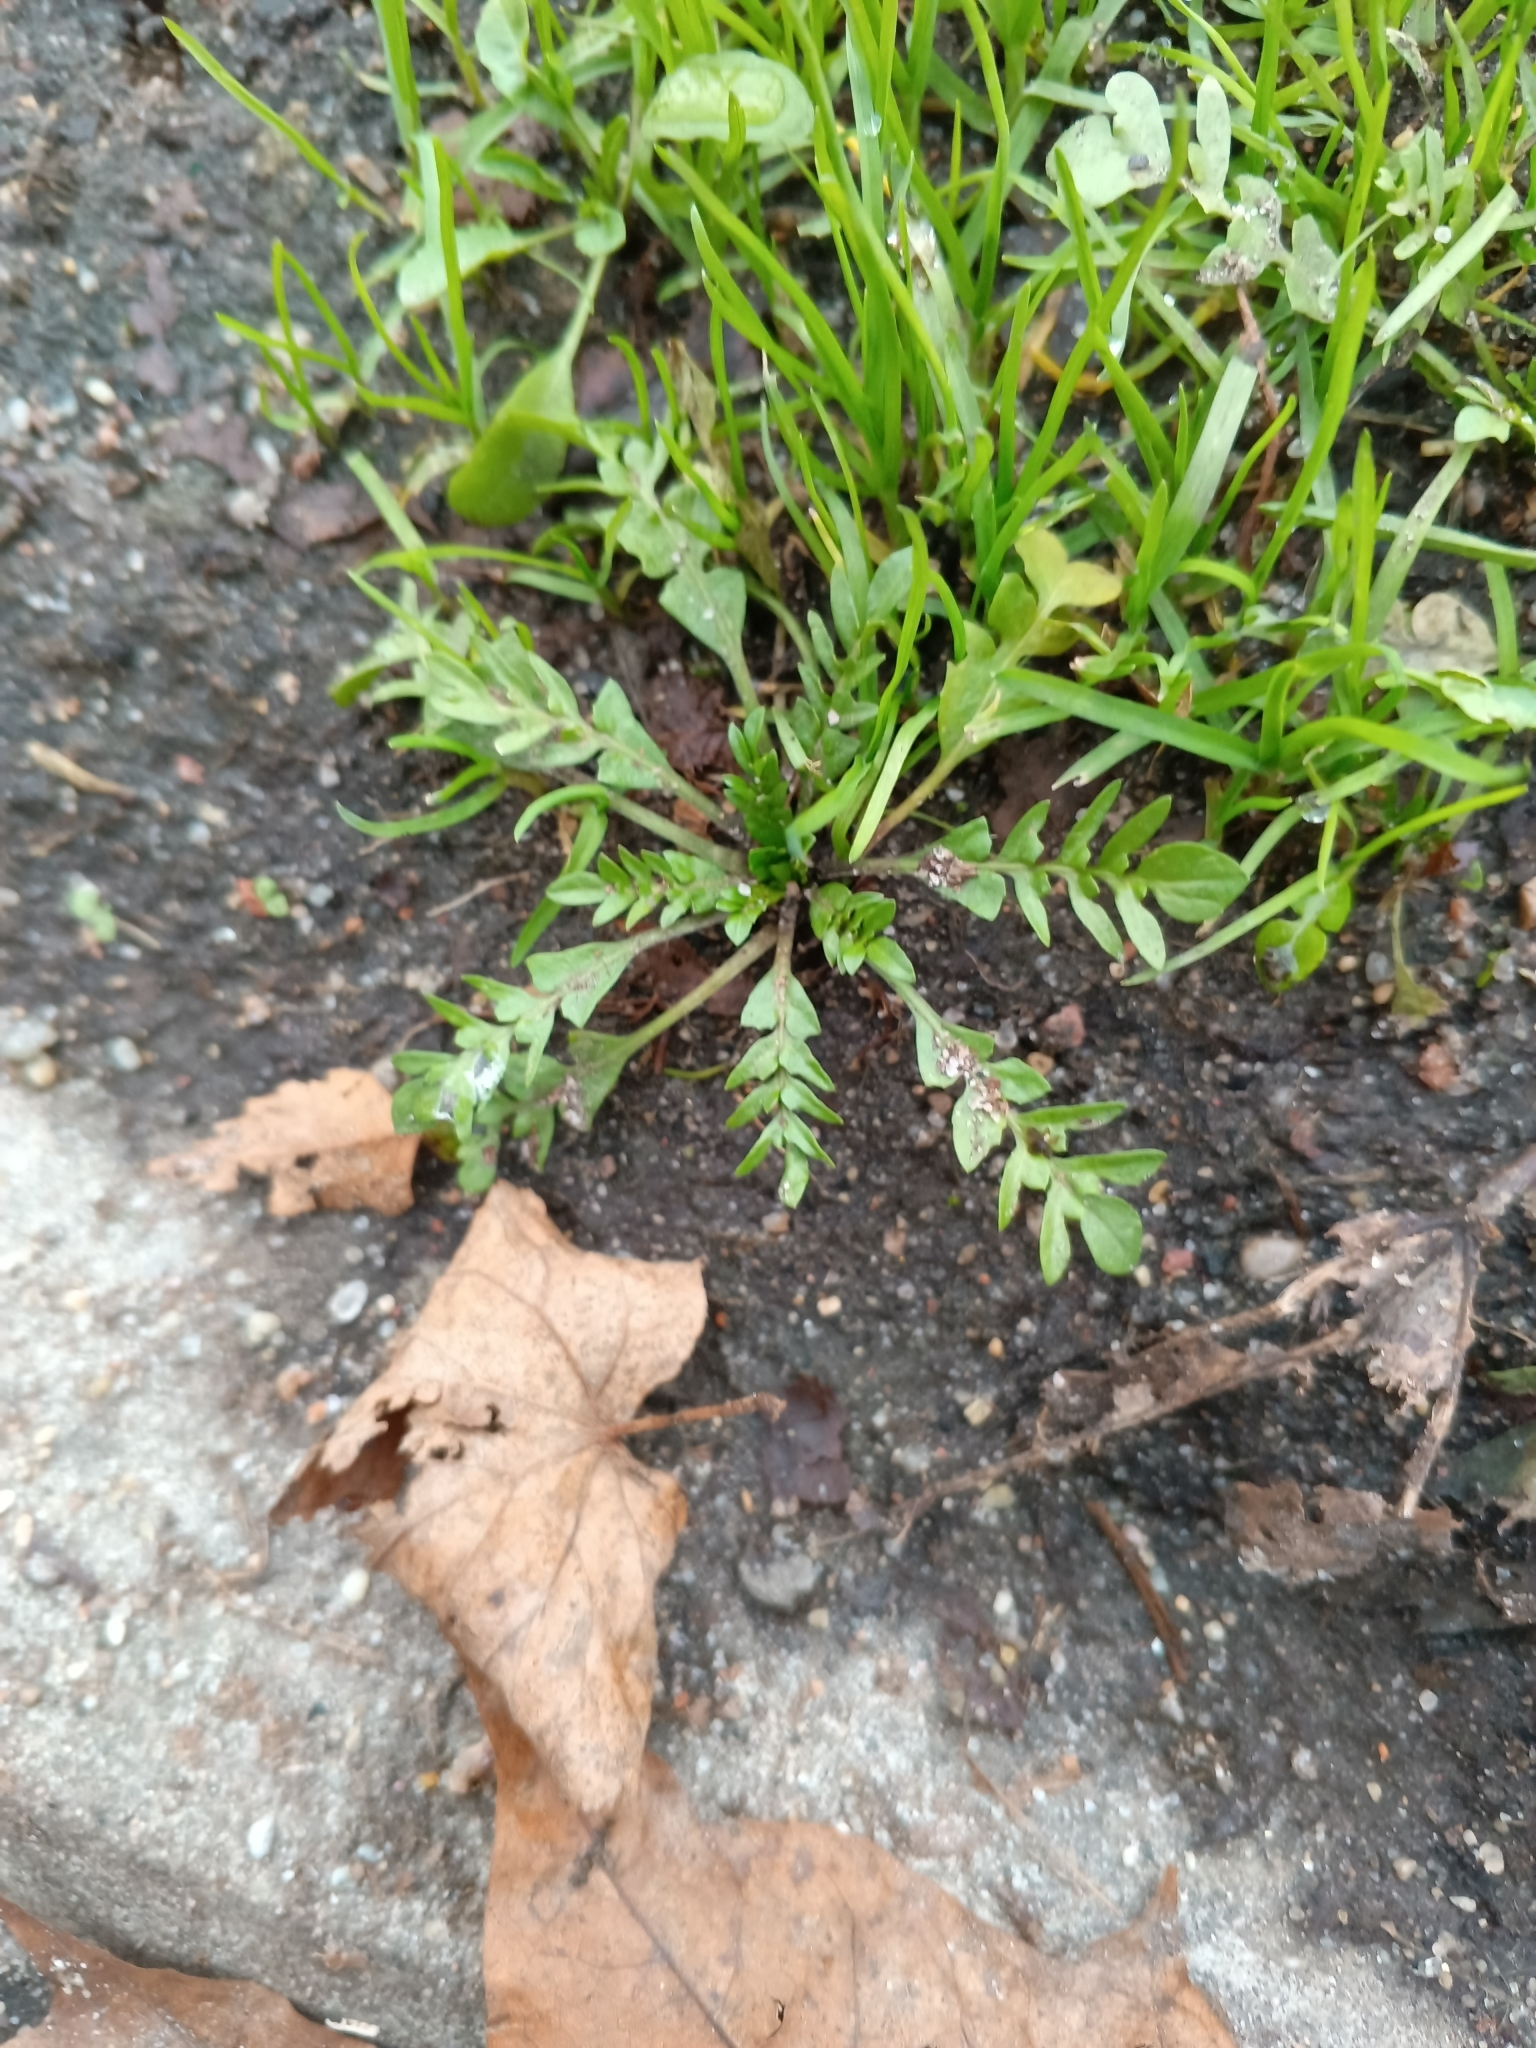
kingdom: Plantae
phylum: Tracheophyta
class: Magnoliopsida
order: Brassicales
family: Brassicaceae
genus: Capsella
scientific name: Capsella bursa-pastoris
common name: Shepherd's purse
